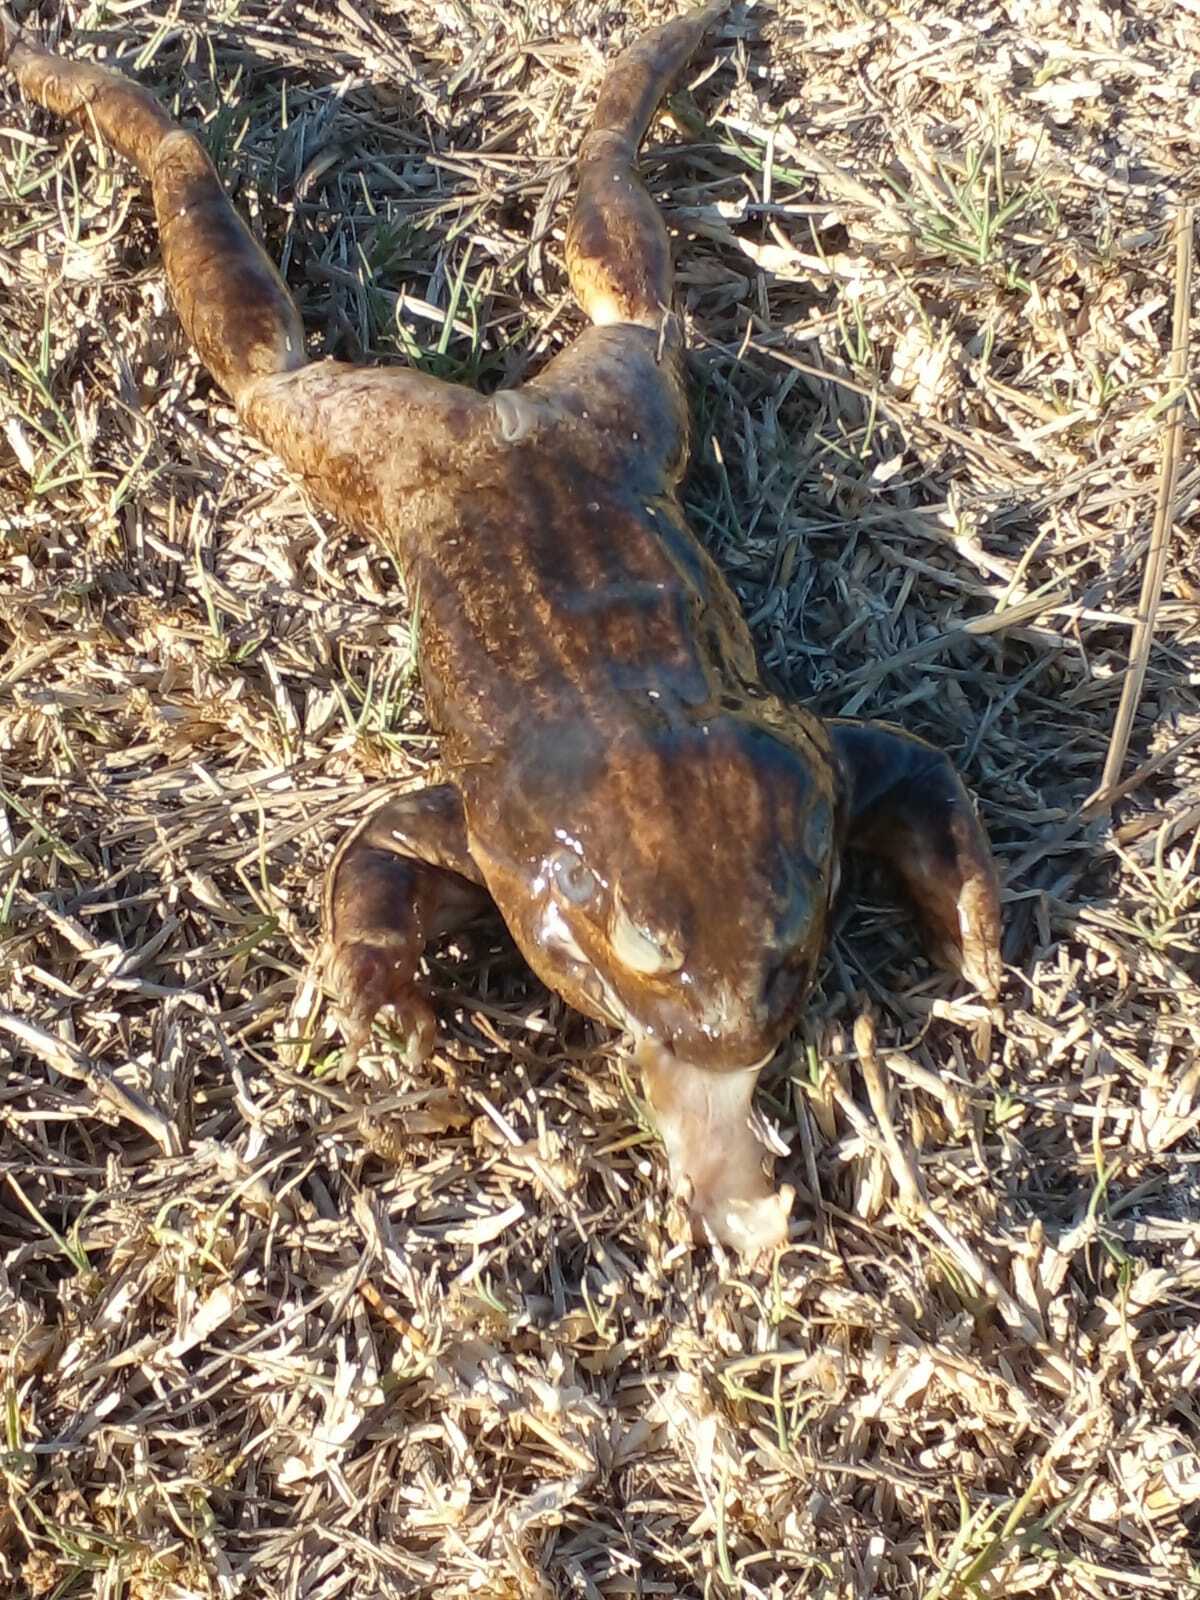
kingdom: Animalia
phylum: Chordata
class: Amphibia
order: Anura
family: Leptodactylidae
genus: Leptodactylus
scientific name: Leptodactylus luctator
